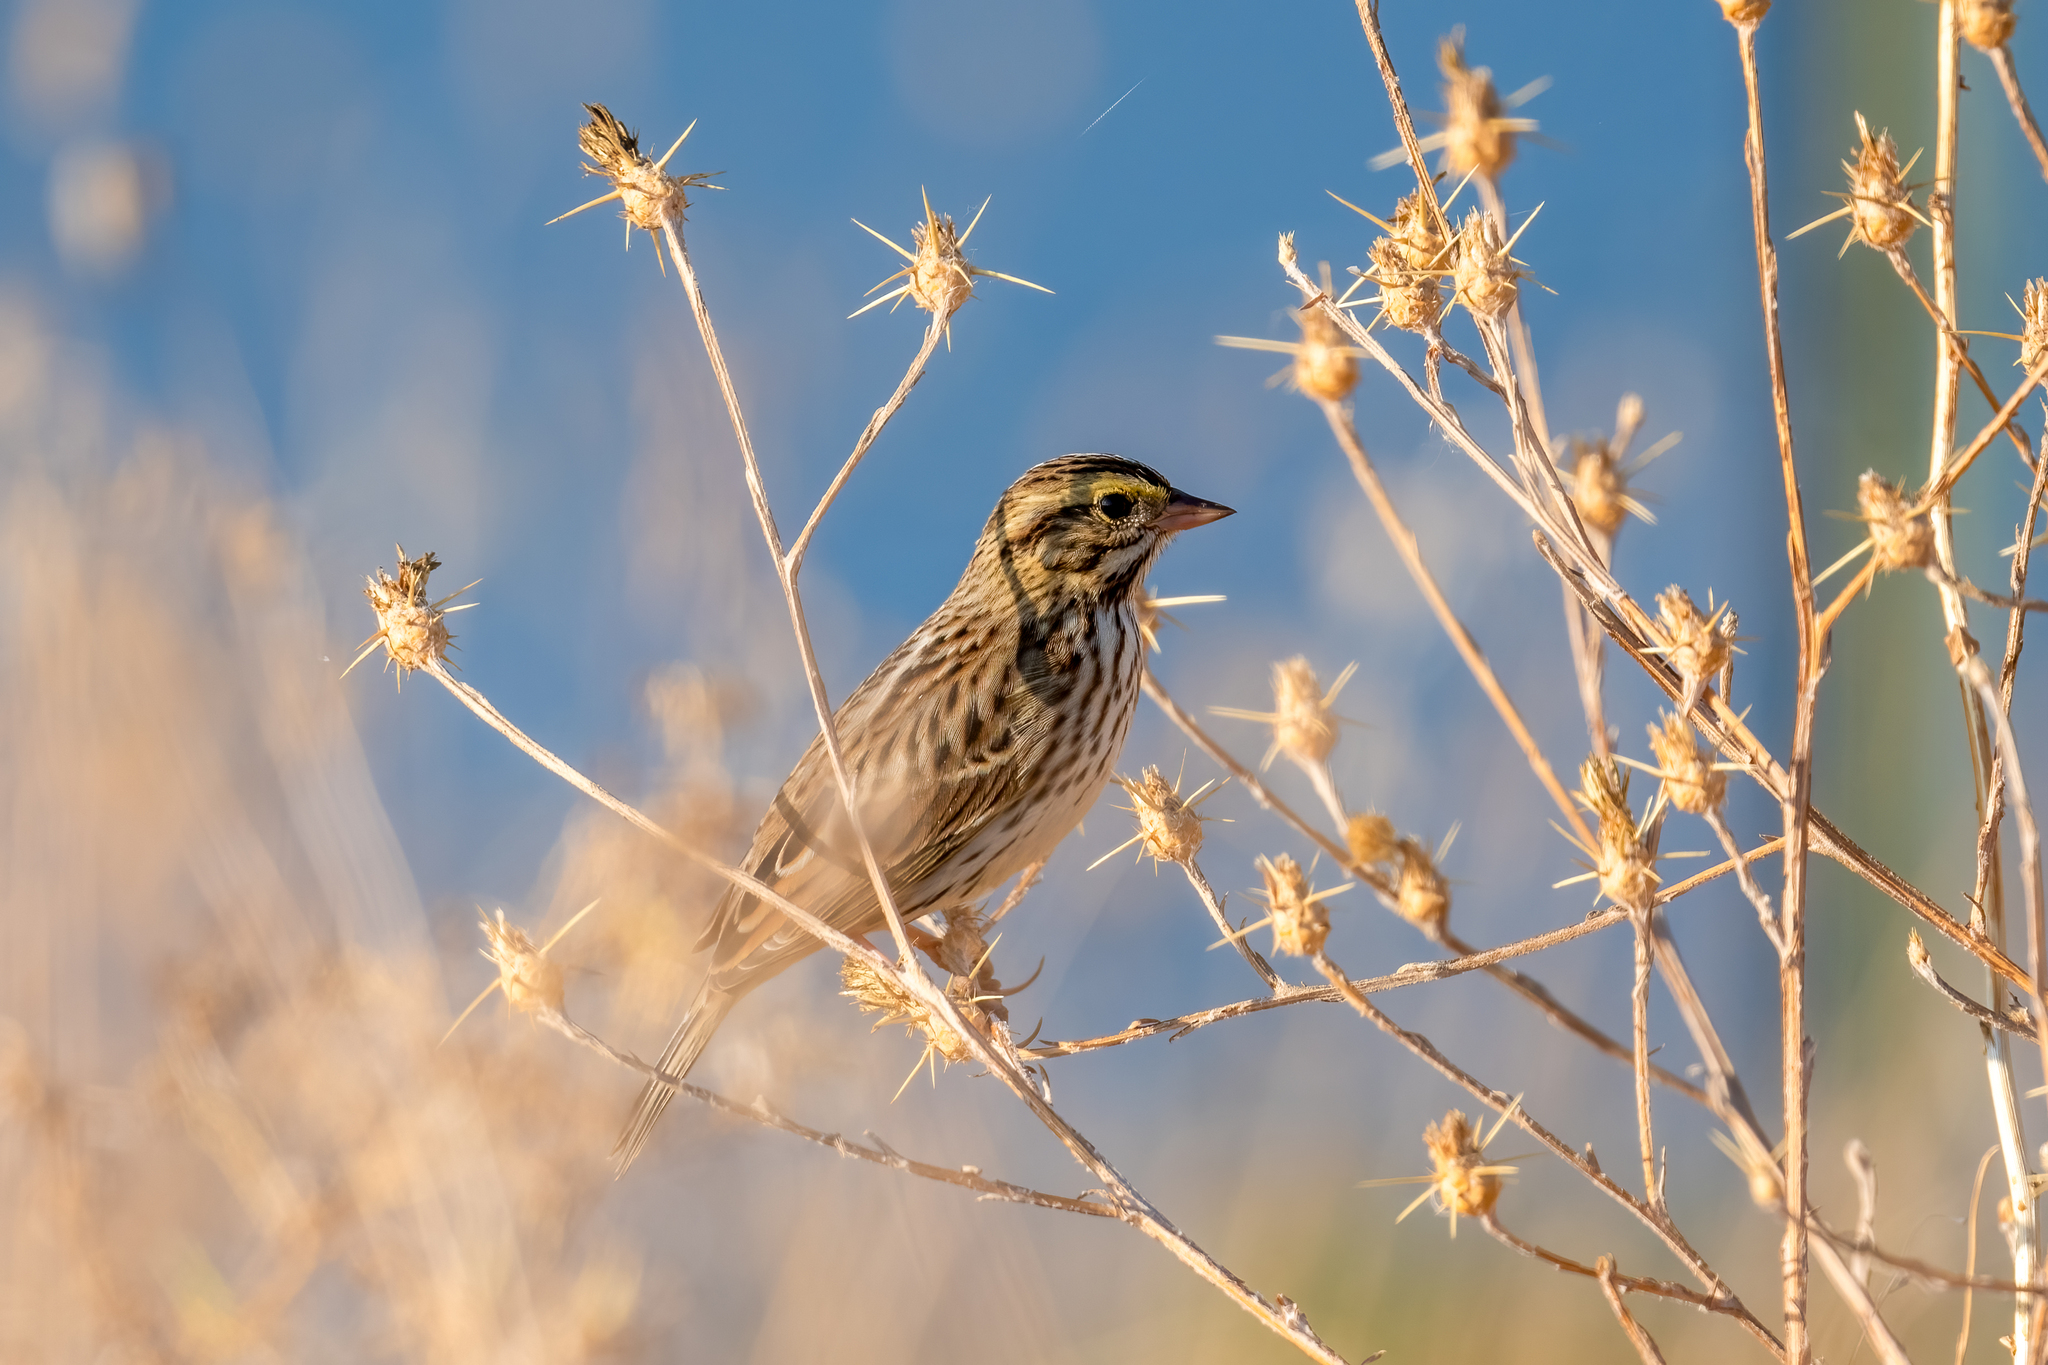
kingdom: Animalia
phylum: Chordata
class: Aves
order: Passeriformes
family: Passerellidae
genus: Passerculus
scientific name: Passerculus sandwichensis
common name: Savannah sparrow
